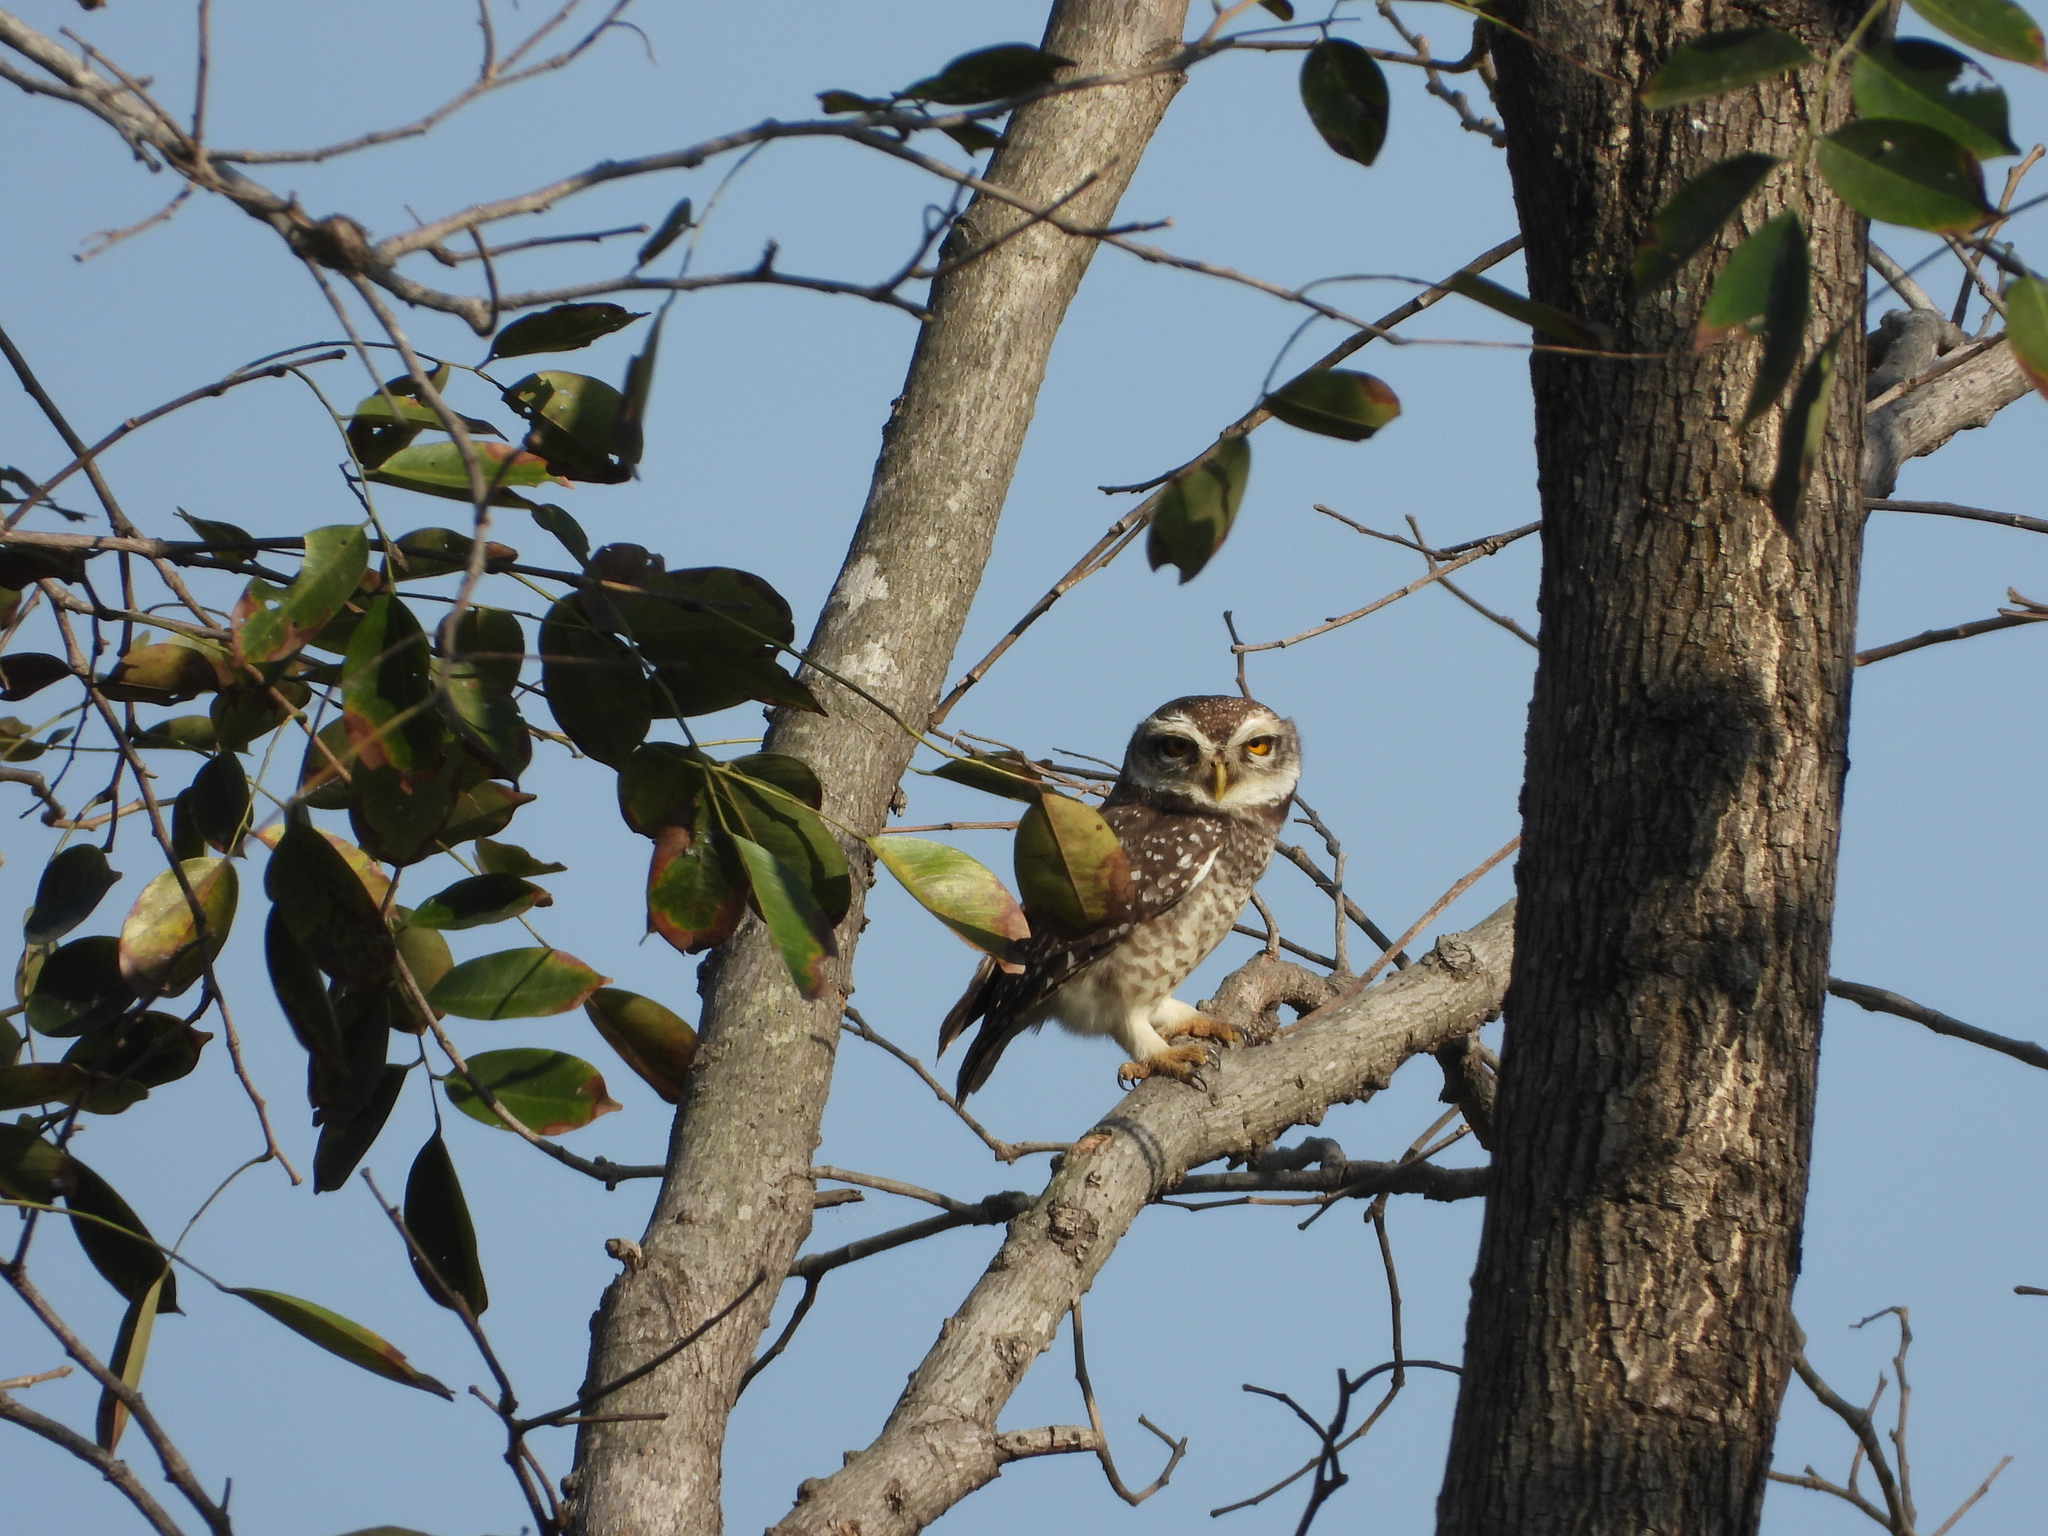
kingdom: Animalia
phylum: Chordata
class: Aves
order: Strigiformes
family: Strigidae
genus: Athene
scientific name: Athene brama
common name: Spotted owlet
